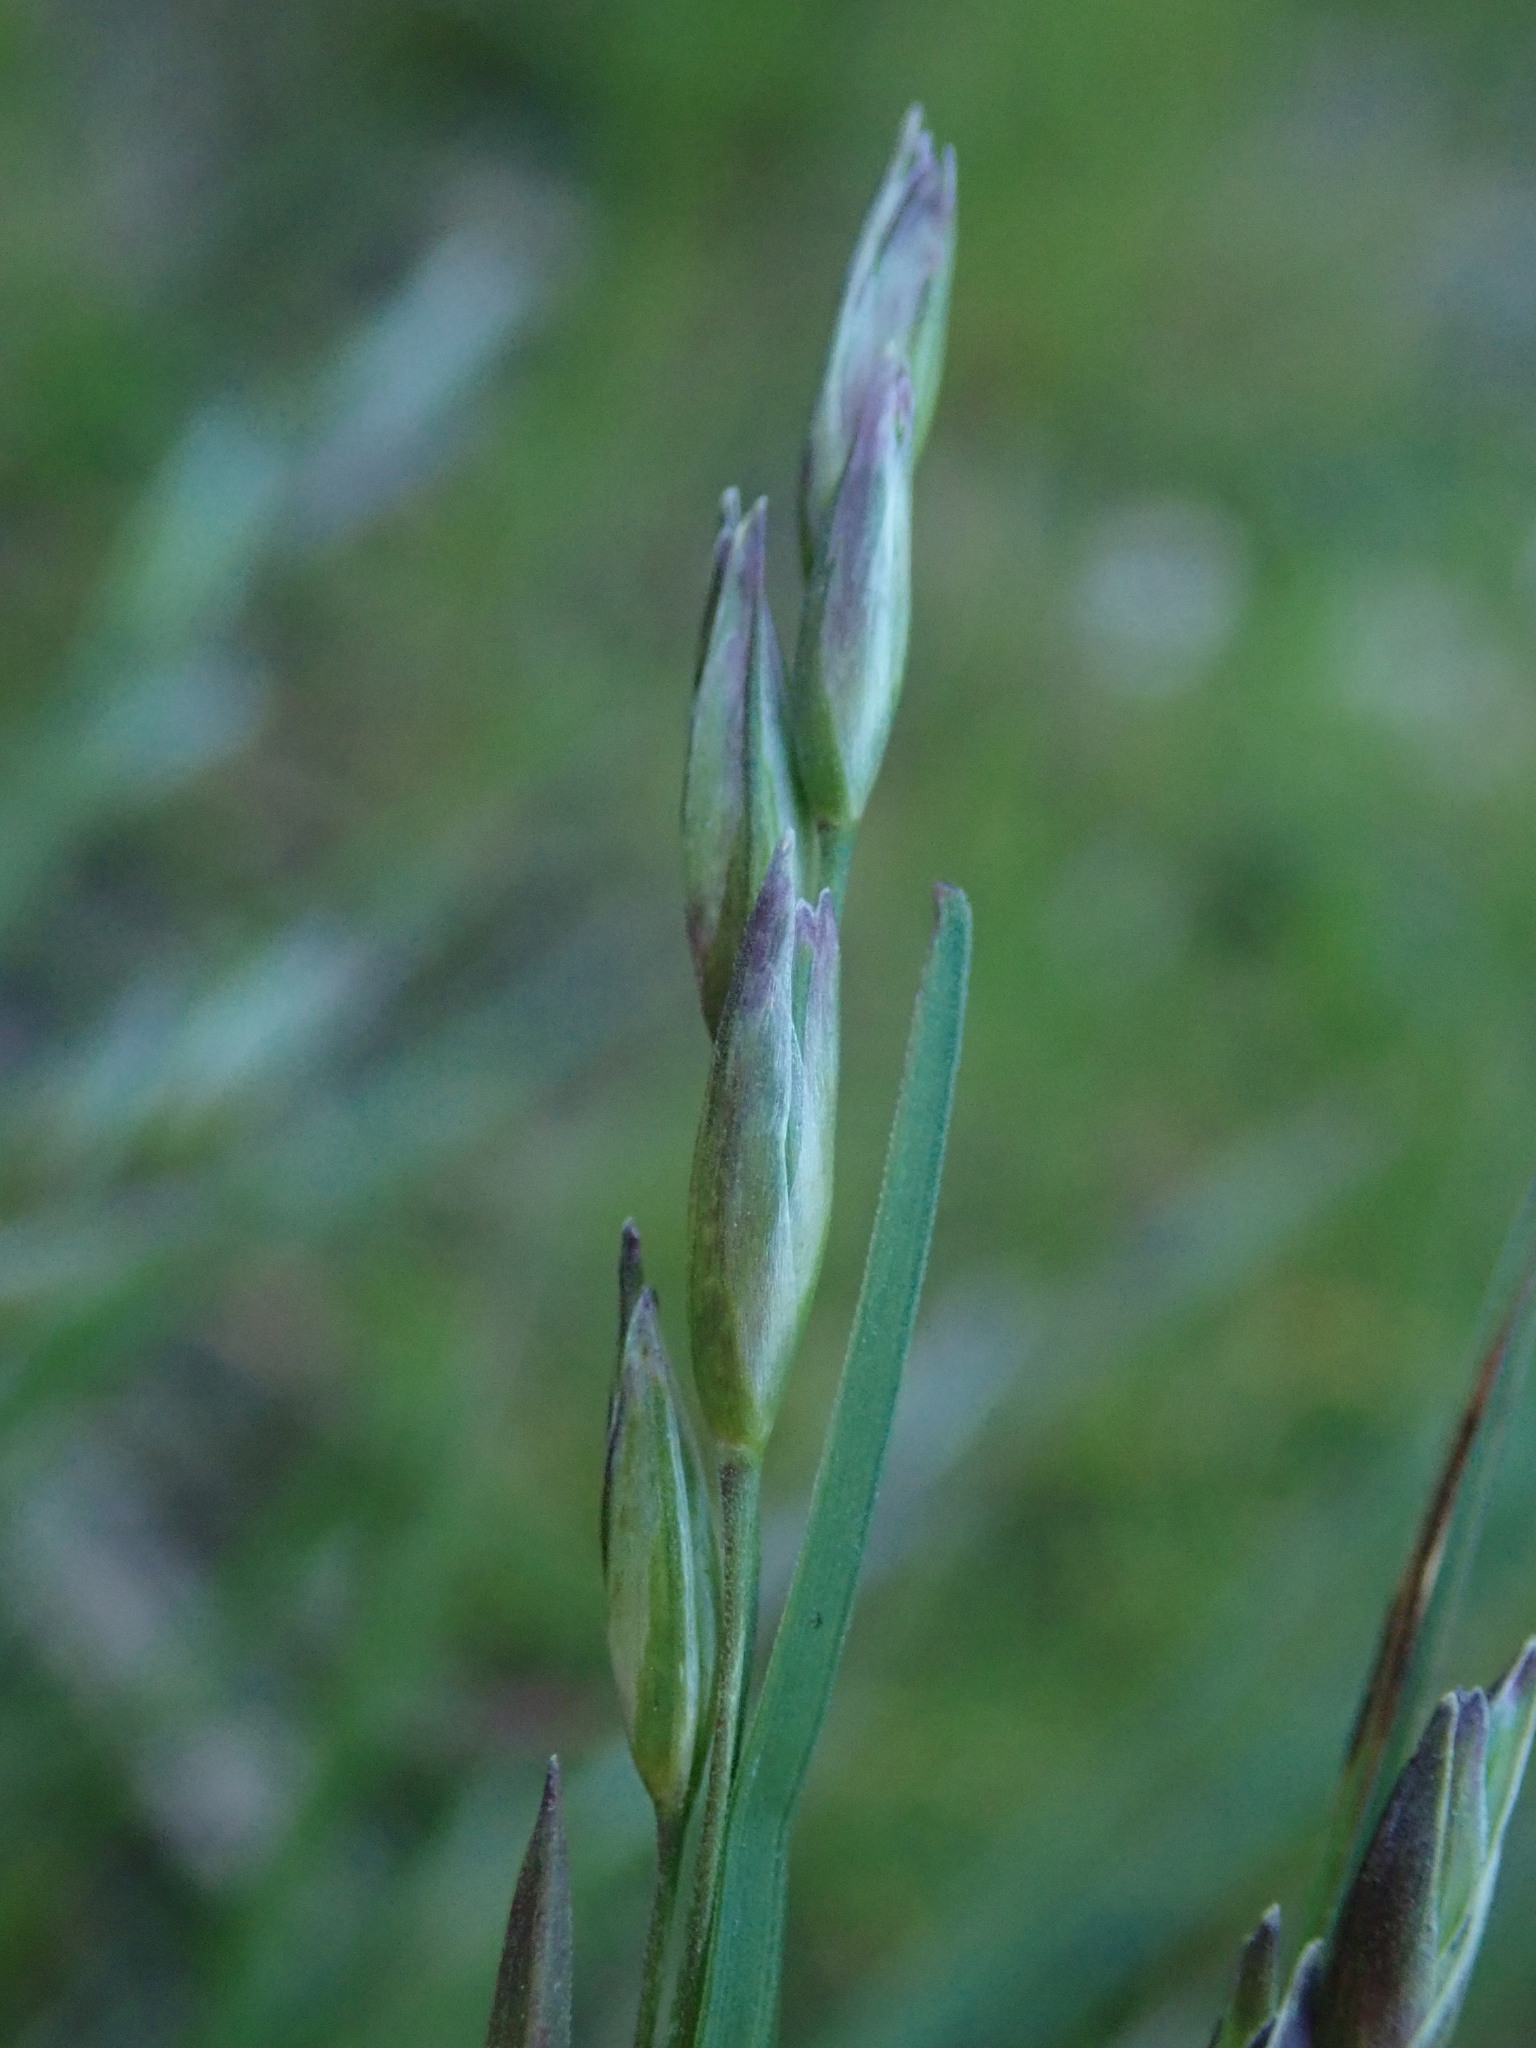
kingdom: Plantae
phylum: Tracheophyta
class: Liliopsida
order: Poales
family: Poaceae
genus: Danthonia
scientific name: Danthonia decumbens
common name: Common heathgrass
